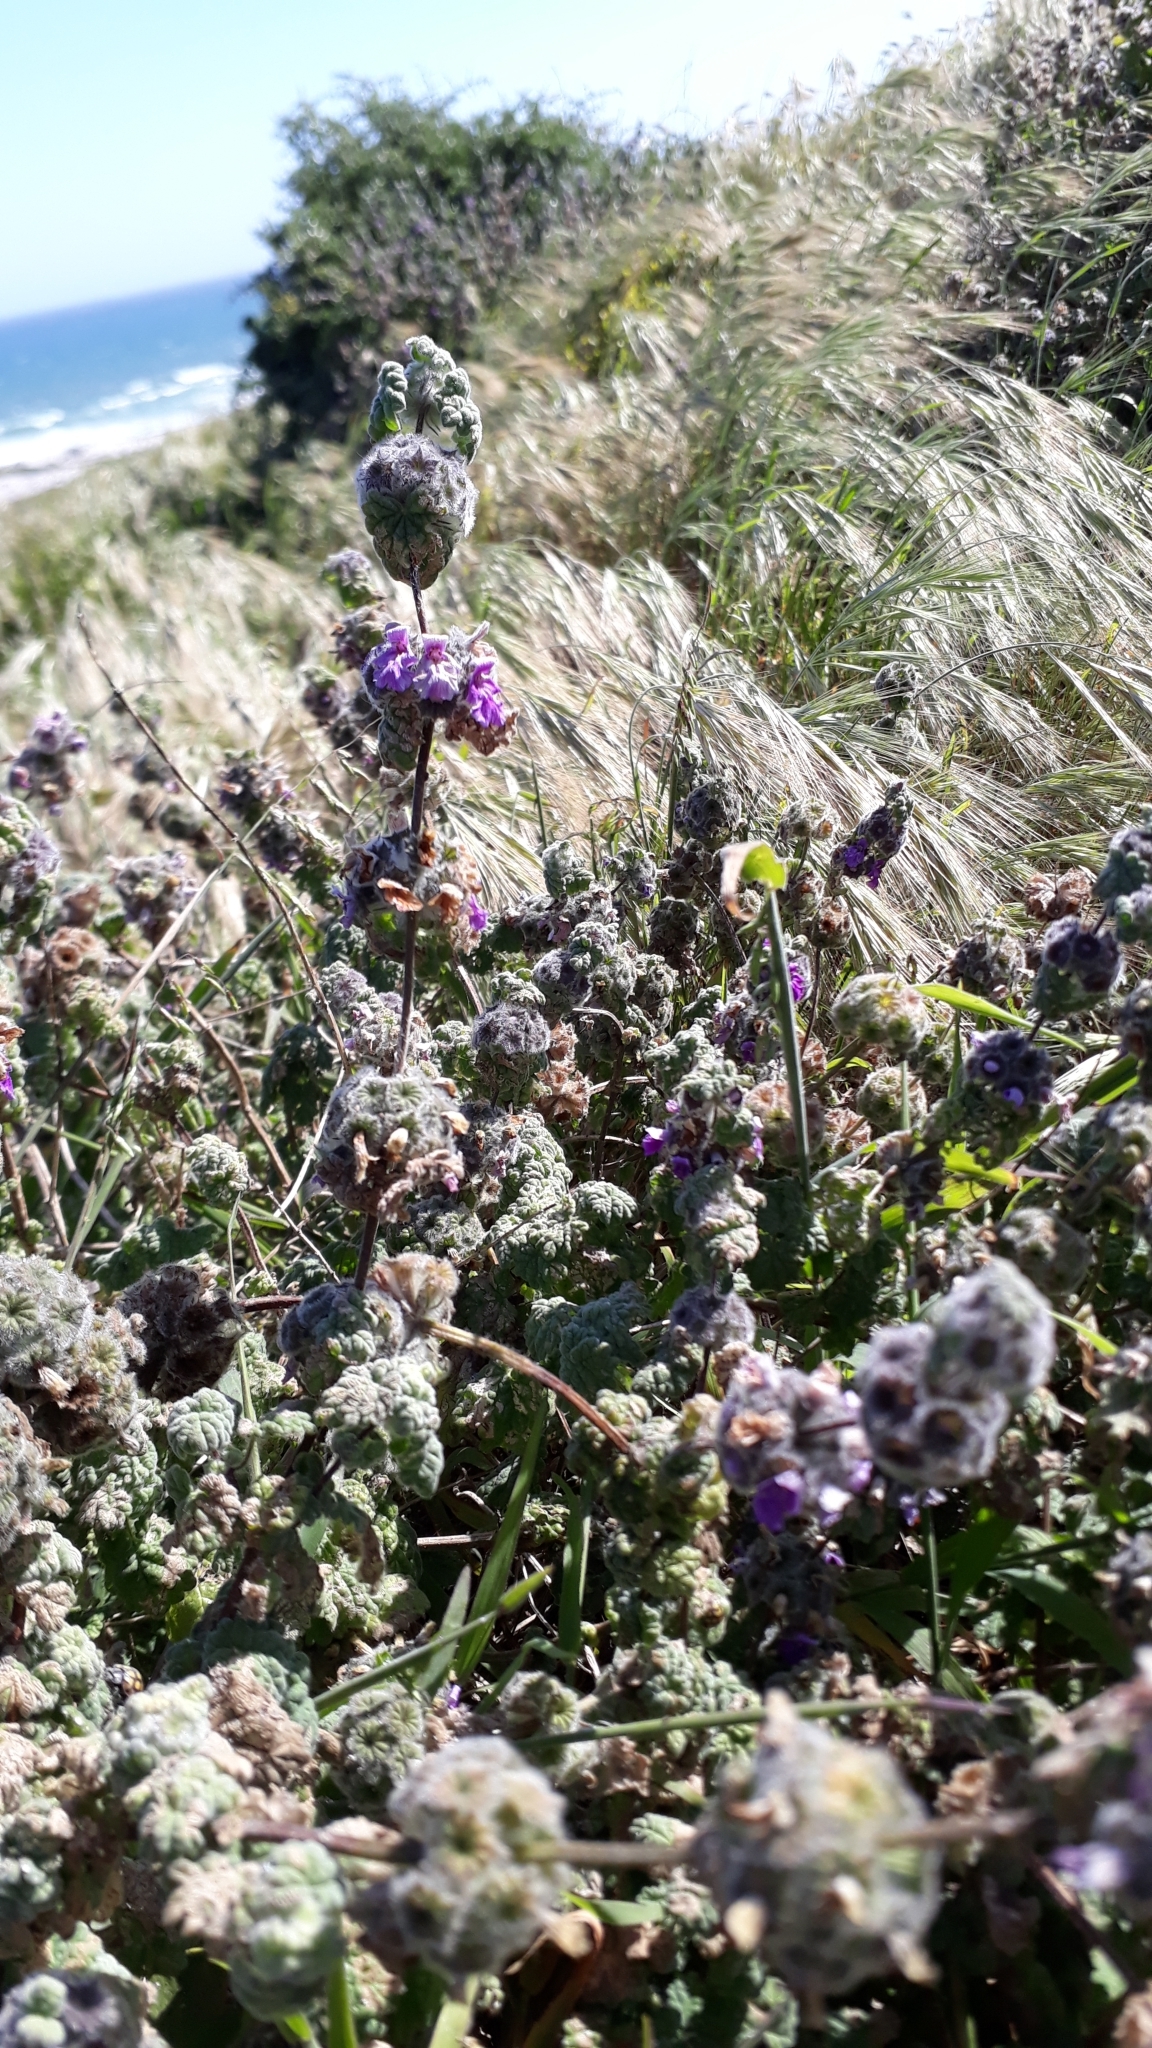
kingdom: Plantae
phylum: Tracheophyta
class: Magnoliopsida
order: Lamiales
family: Lamiaceae
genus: Pseudodictamnus
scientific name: Pseudodictamnus africanus
